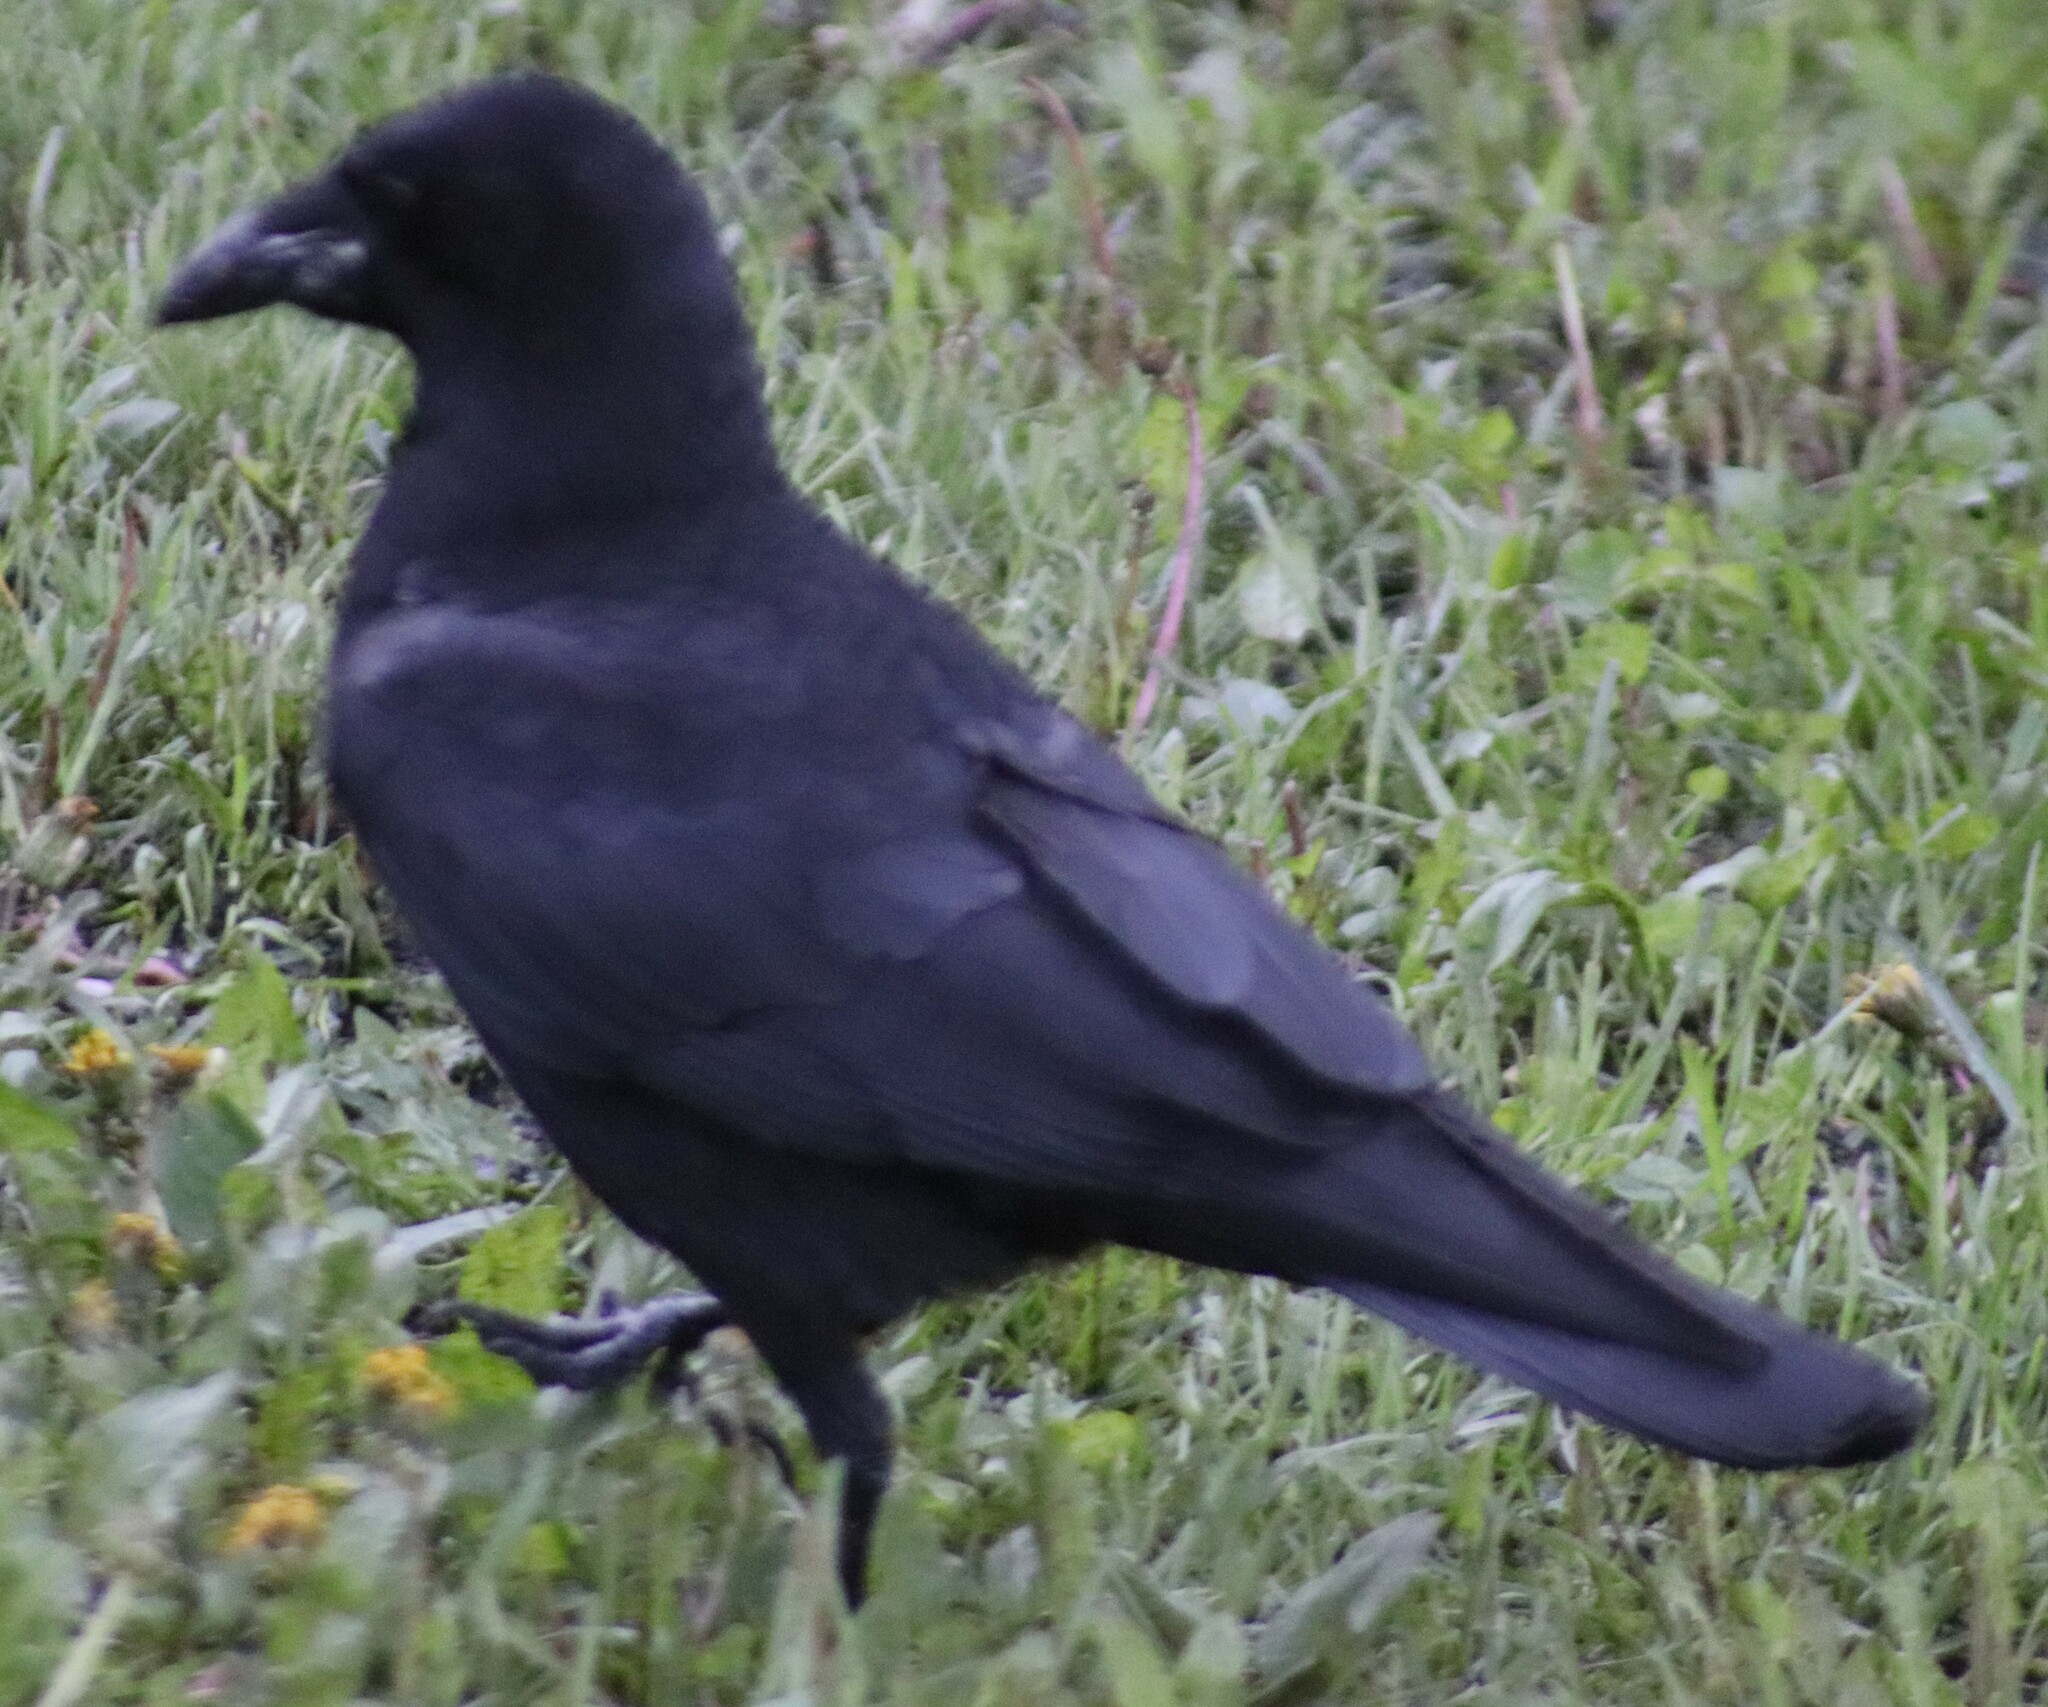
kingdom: Animalia
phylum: Chordata
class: Aves
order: Passeriformes
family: Corvidae
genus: Corvus
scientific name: Corvus brachyrhynchos
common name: American crow
